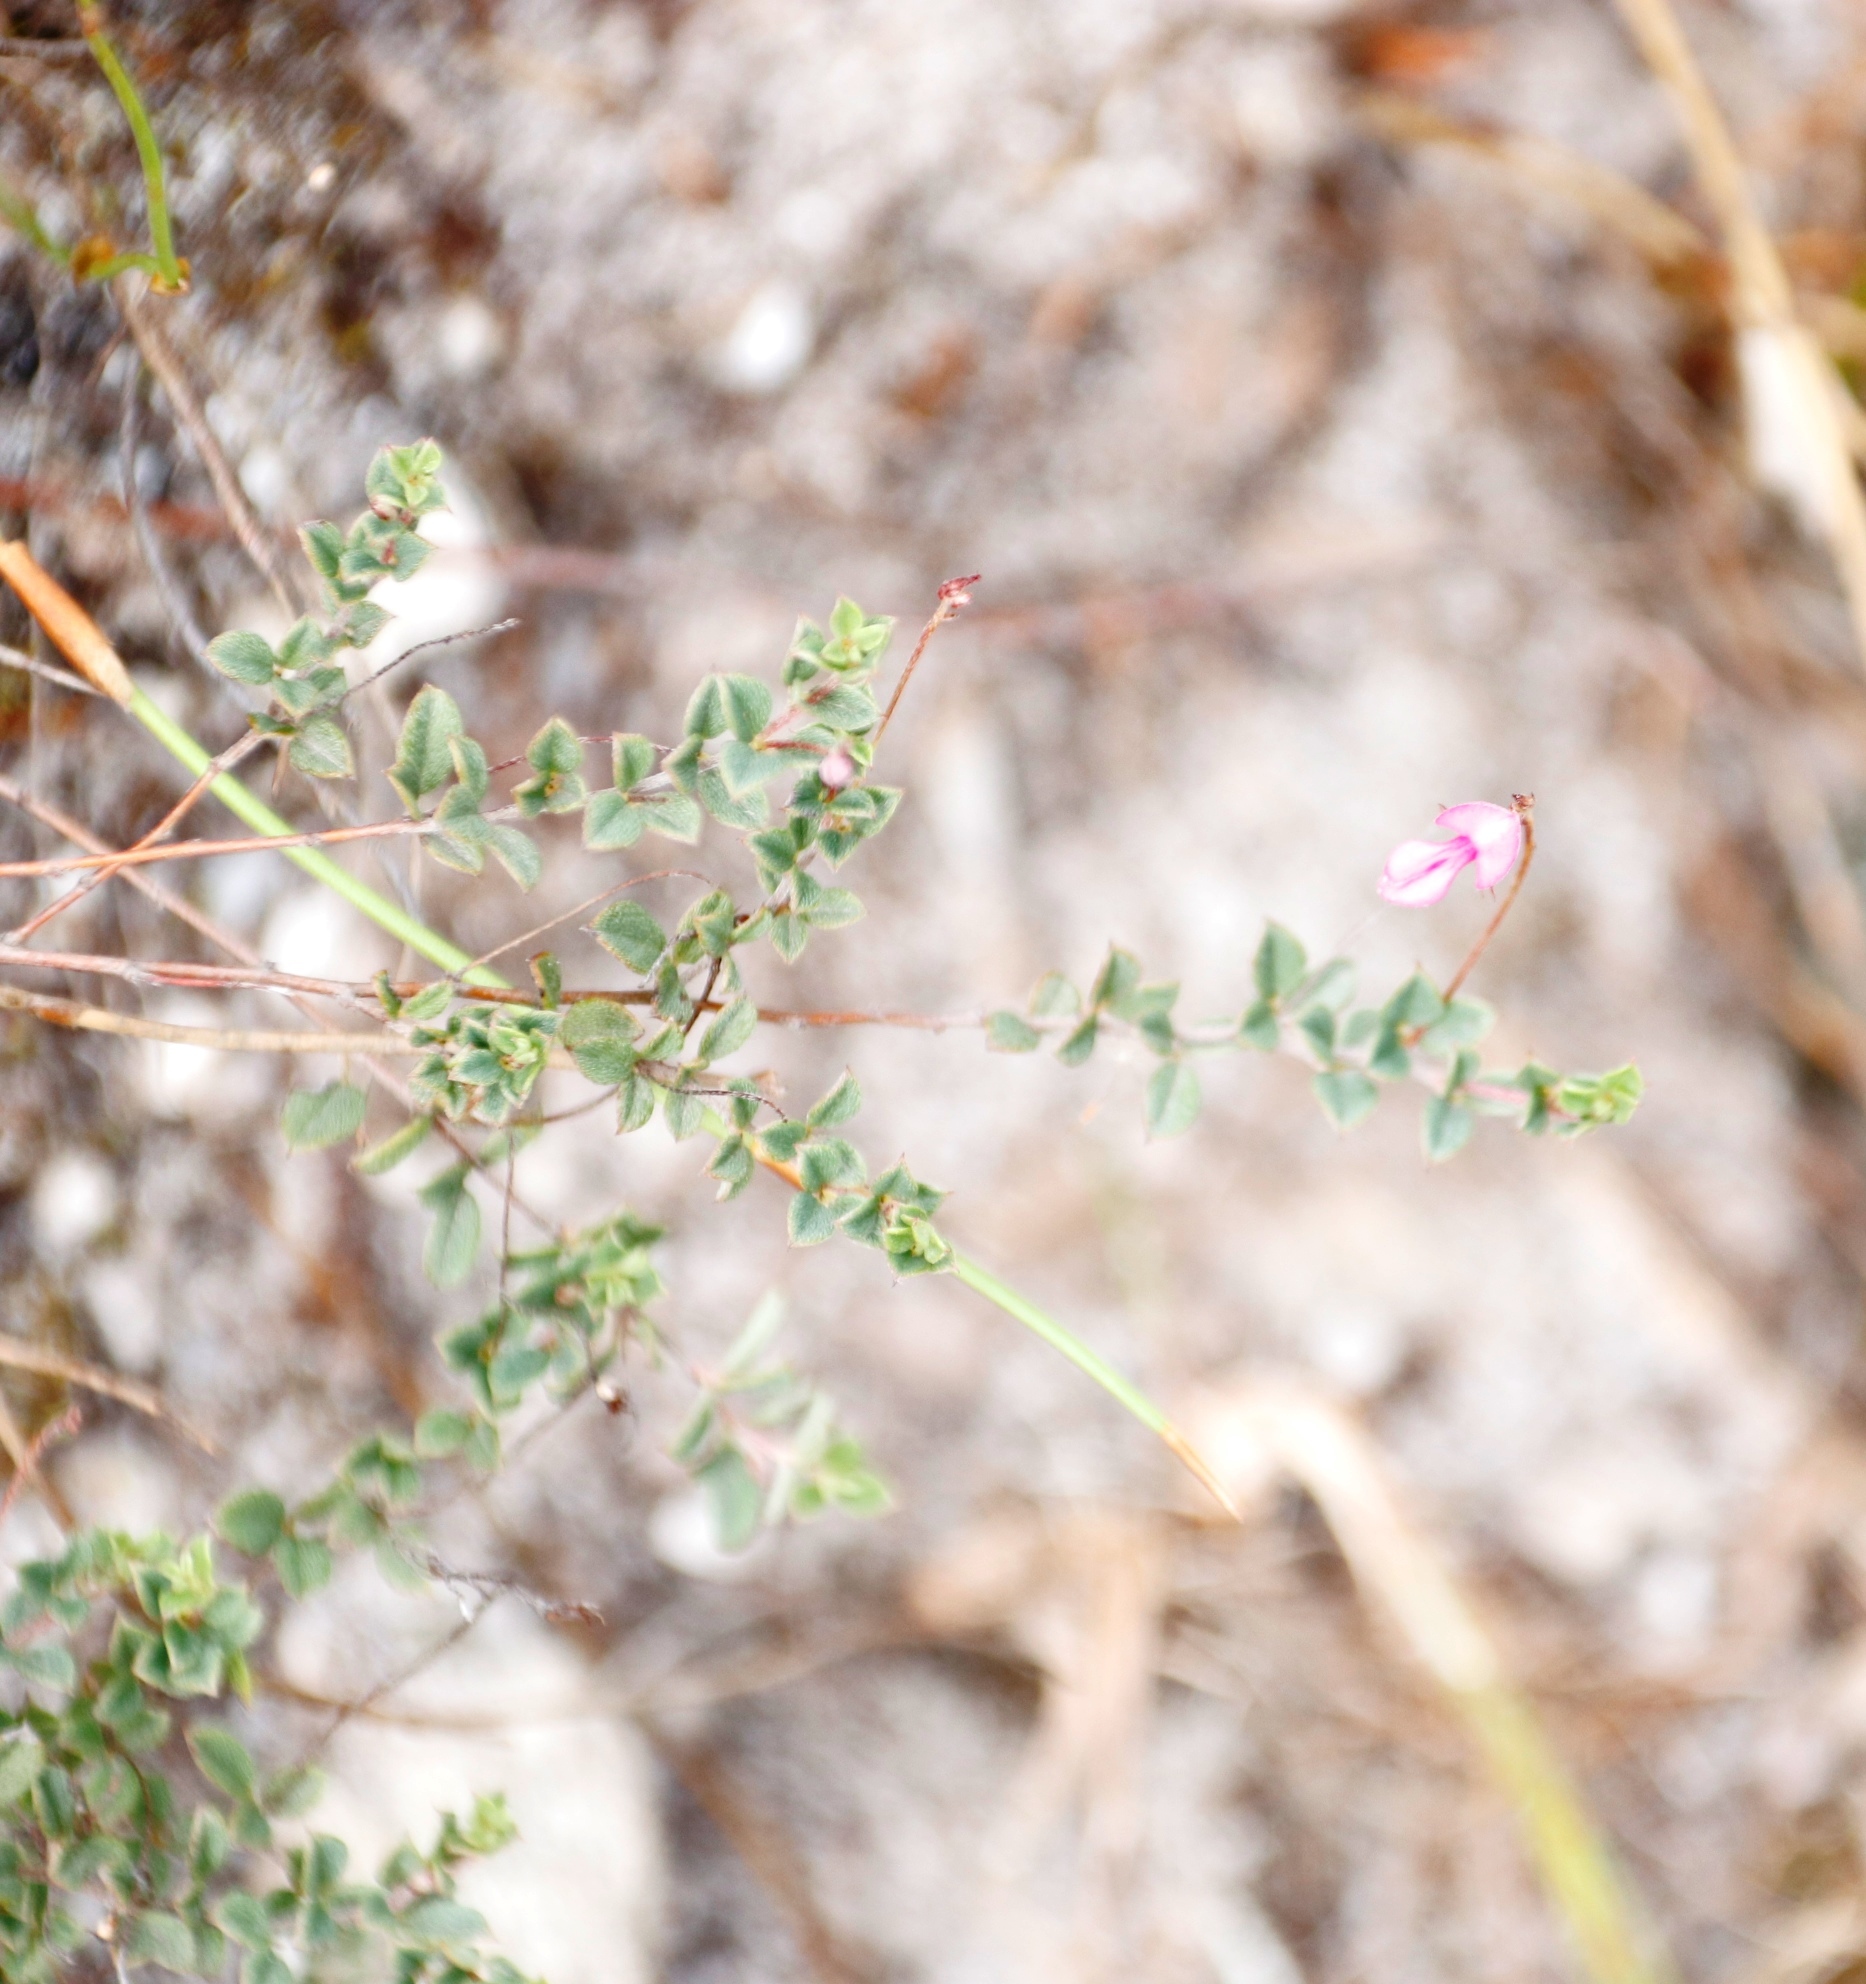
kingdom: Plantae
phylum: Tracheophyta
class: Magnoliopsida
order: Fabales
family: Fabaceae
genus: Indigofera
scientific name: Indigofera sarmentosa
